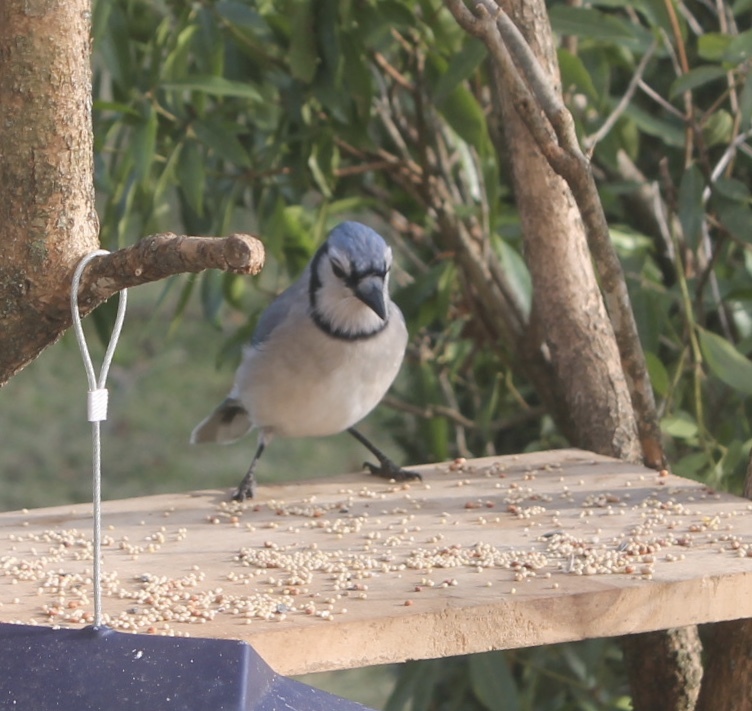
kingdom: Animalia
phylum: Chordata
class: Aves
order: Passeriformes
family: Corvidae
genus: Cyanocitta
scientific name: Cyanocitta cristata
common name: Blue jay
